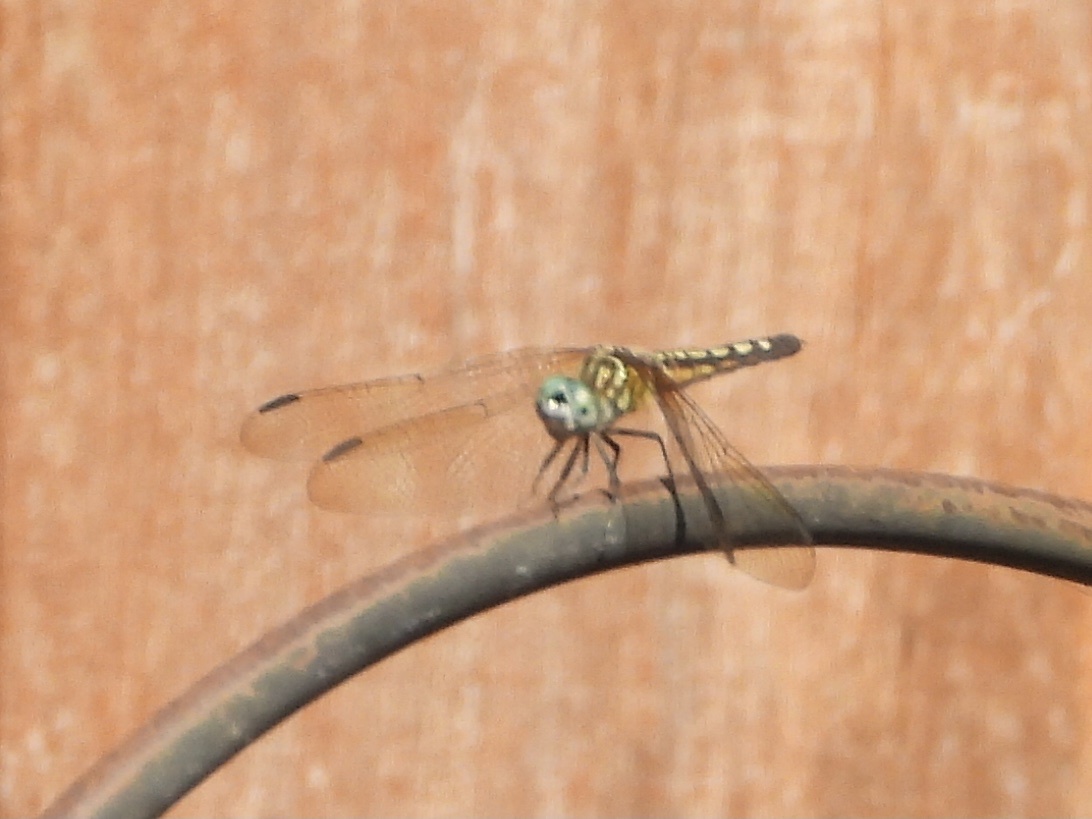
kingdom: Animalia
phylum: Arthropoda
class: Insecta
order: Odonata
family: Libellulidae
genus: Pachydiplax
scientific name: Pachydiplax longipennis
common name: Blue dasher
